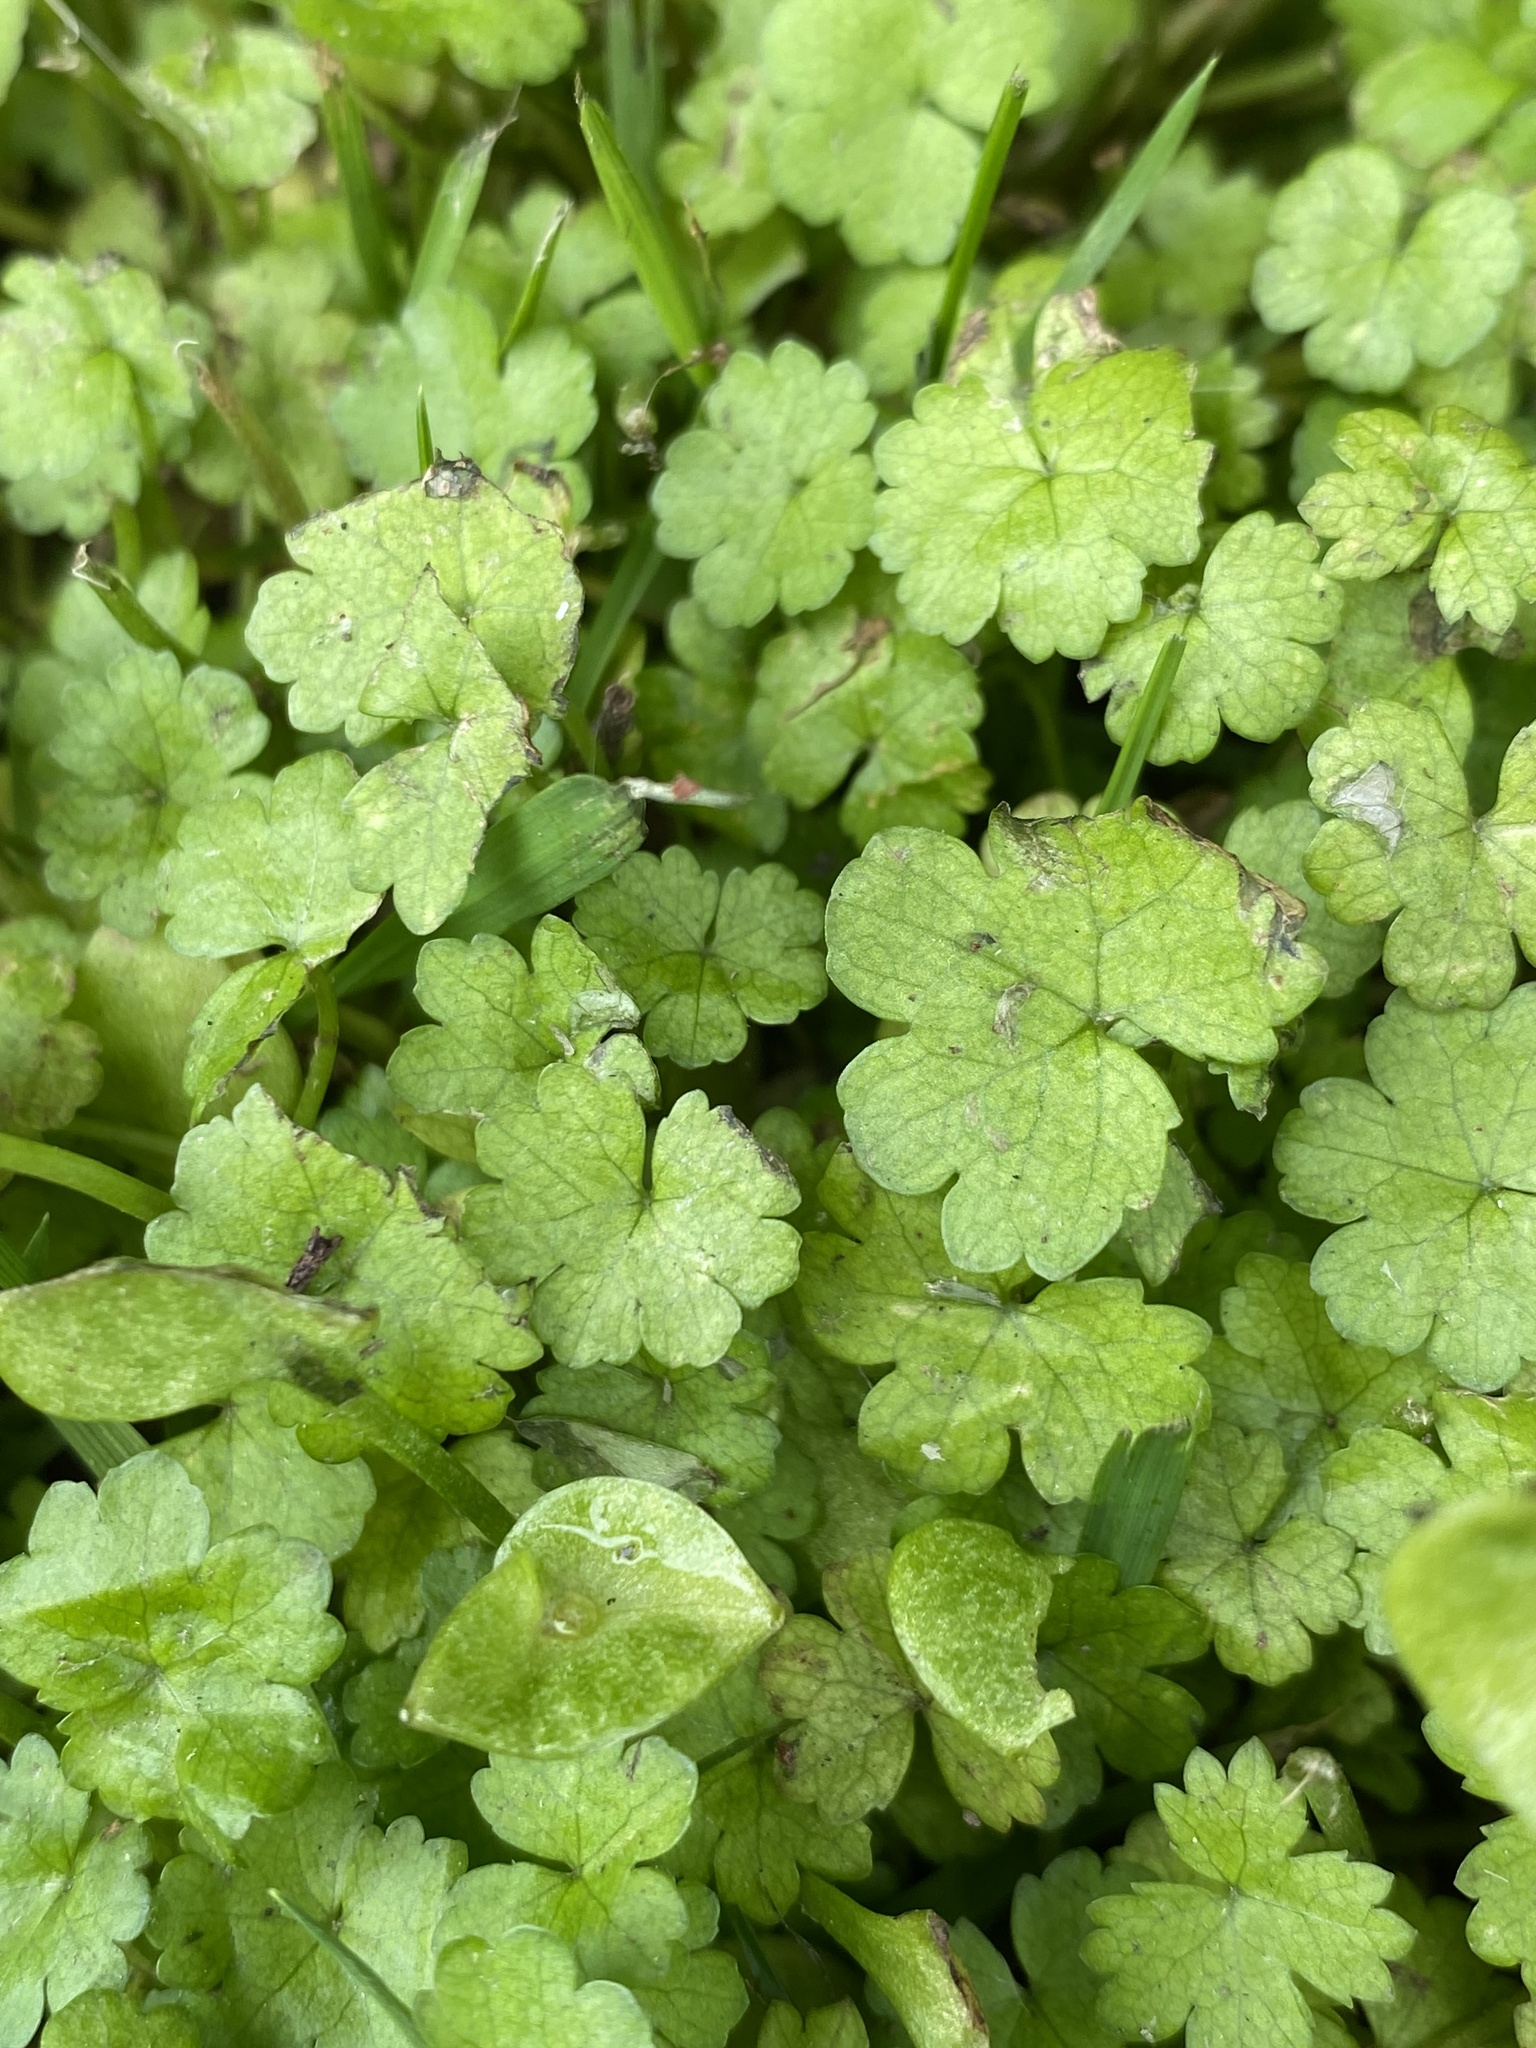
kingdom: Plantae
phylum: Tracheophyta
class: Magnoliopsida
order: Apiales
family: Araliaceae
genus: Hydrocotyle
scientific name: Hydrocotyle heteromeria
